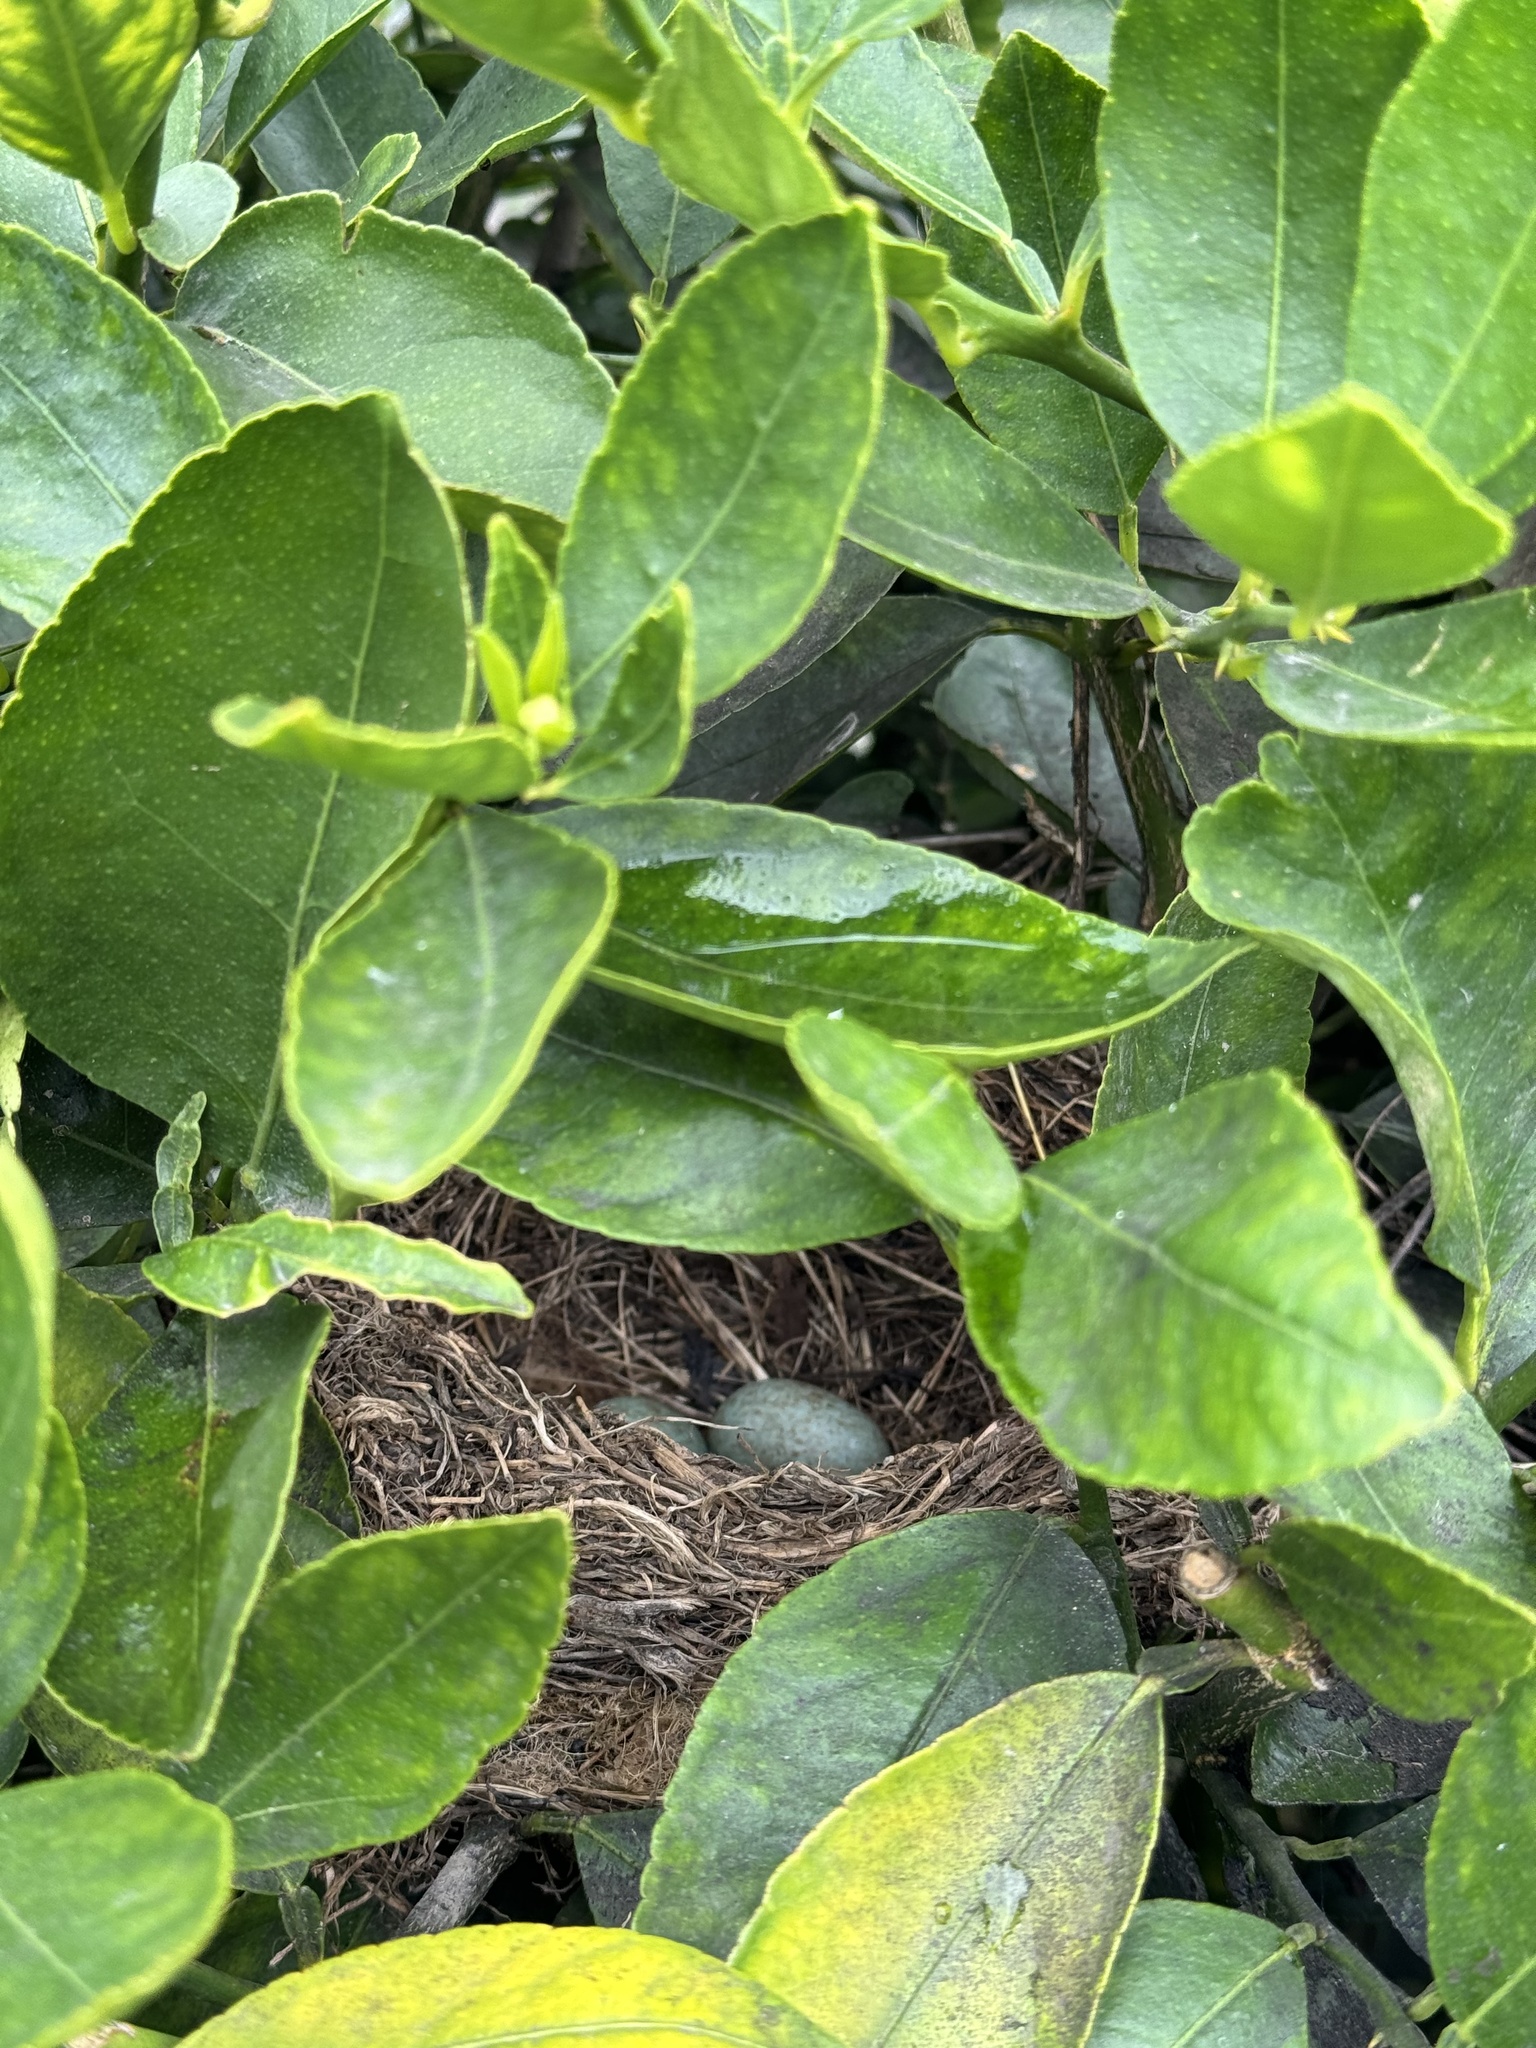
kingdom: Animalia
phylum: Chordata
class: Aves
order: Passeriformes
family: Turdidae
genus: Turdus
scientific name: Turdus merula
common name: Common blackbird
